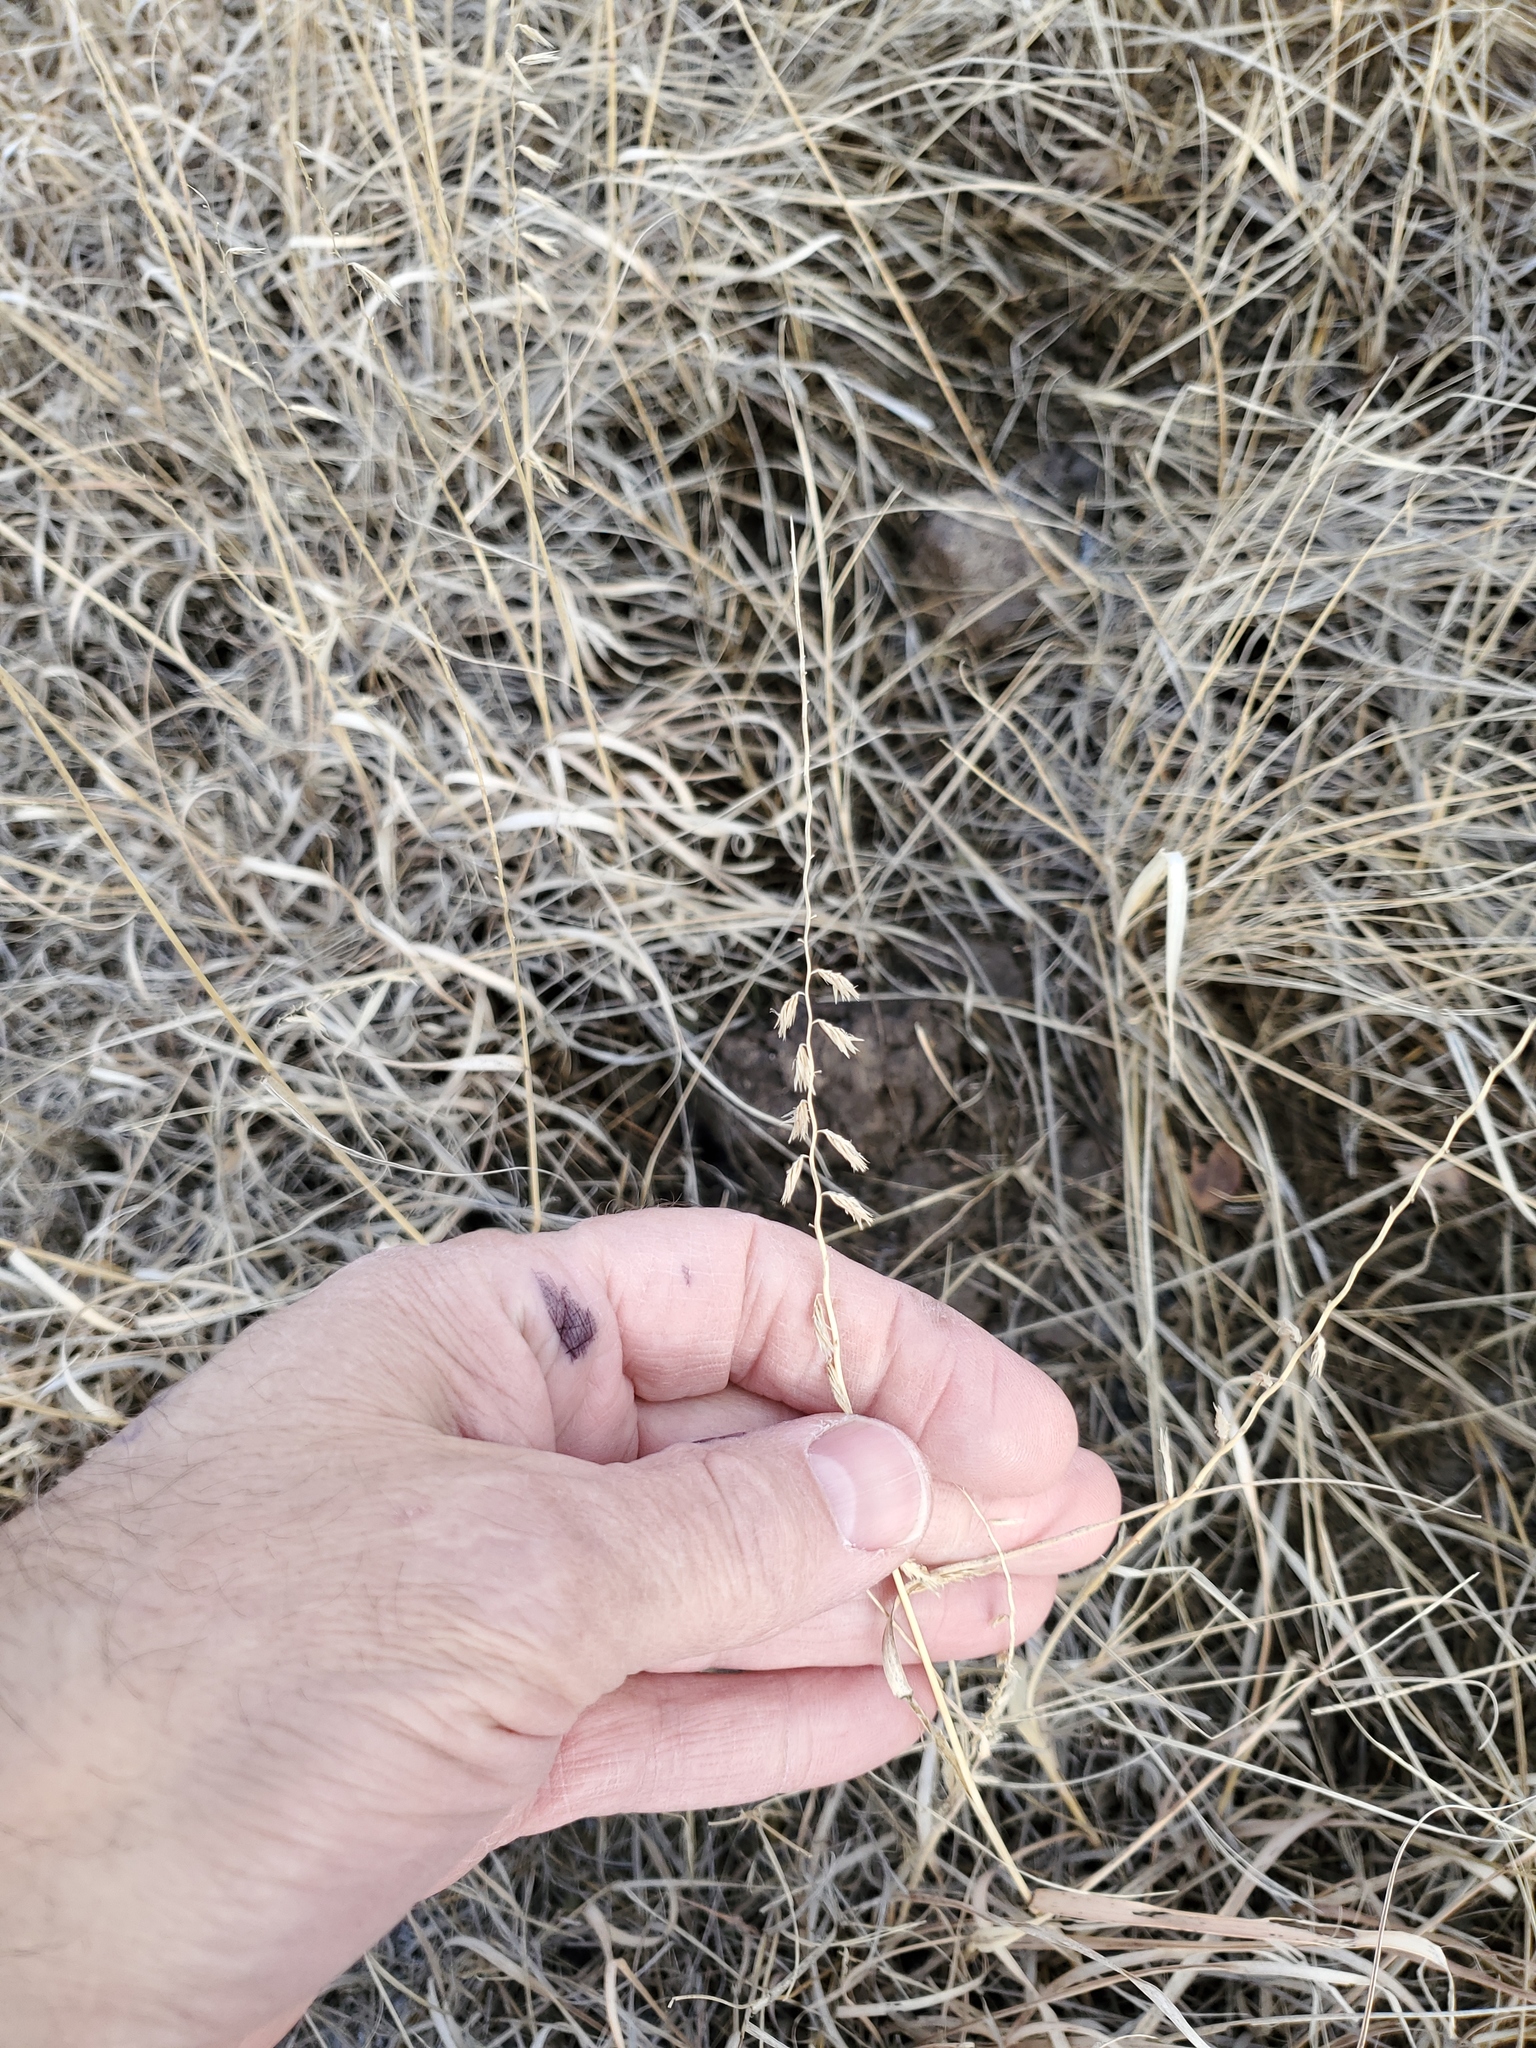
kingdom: Plantae
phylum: Tracheophyta
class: Liliopsida
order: Poales
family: Poaceae
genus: Bouteloua
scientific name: Bouteloua curtipendula
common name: Side-oats grama
